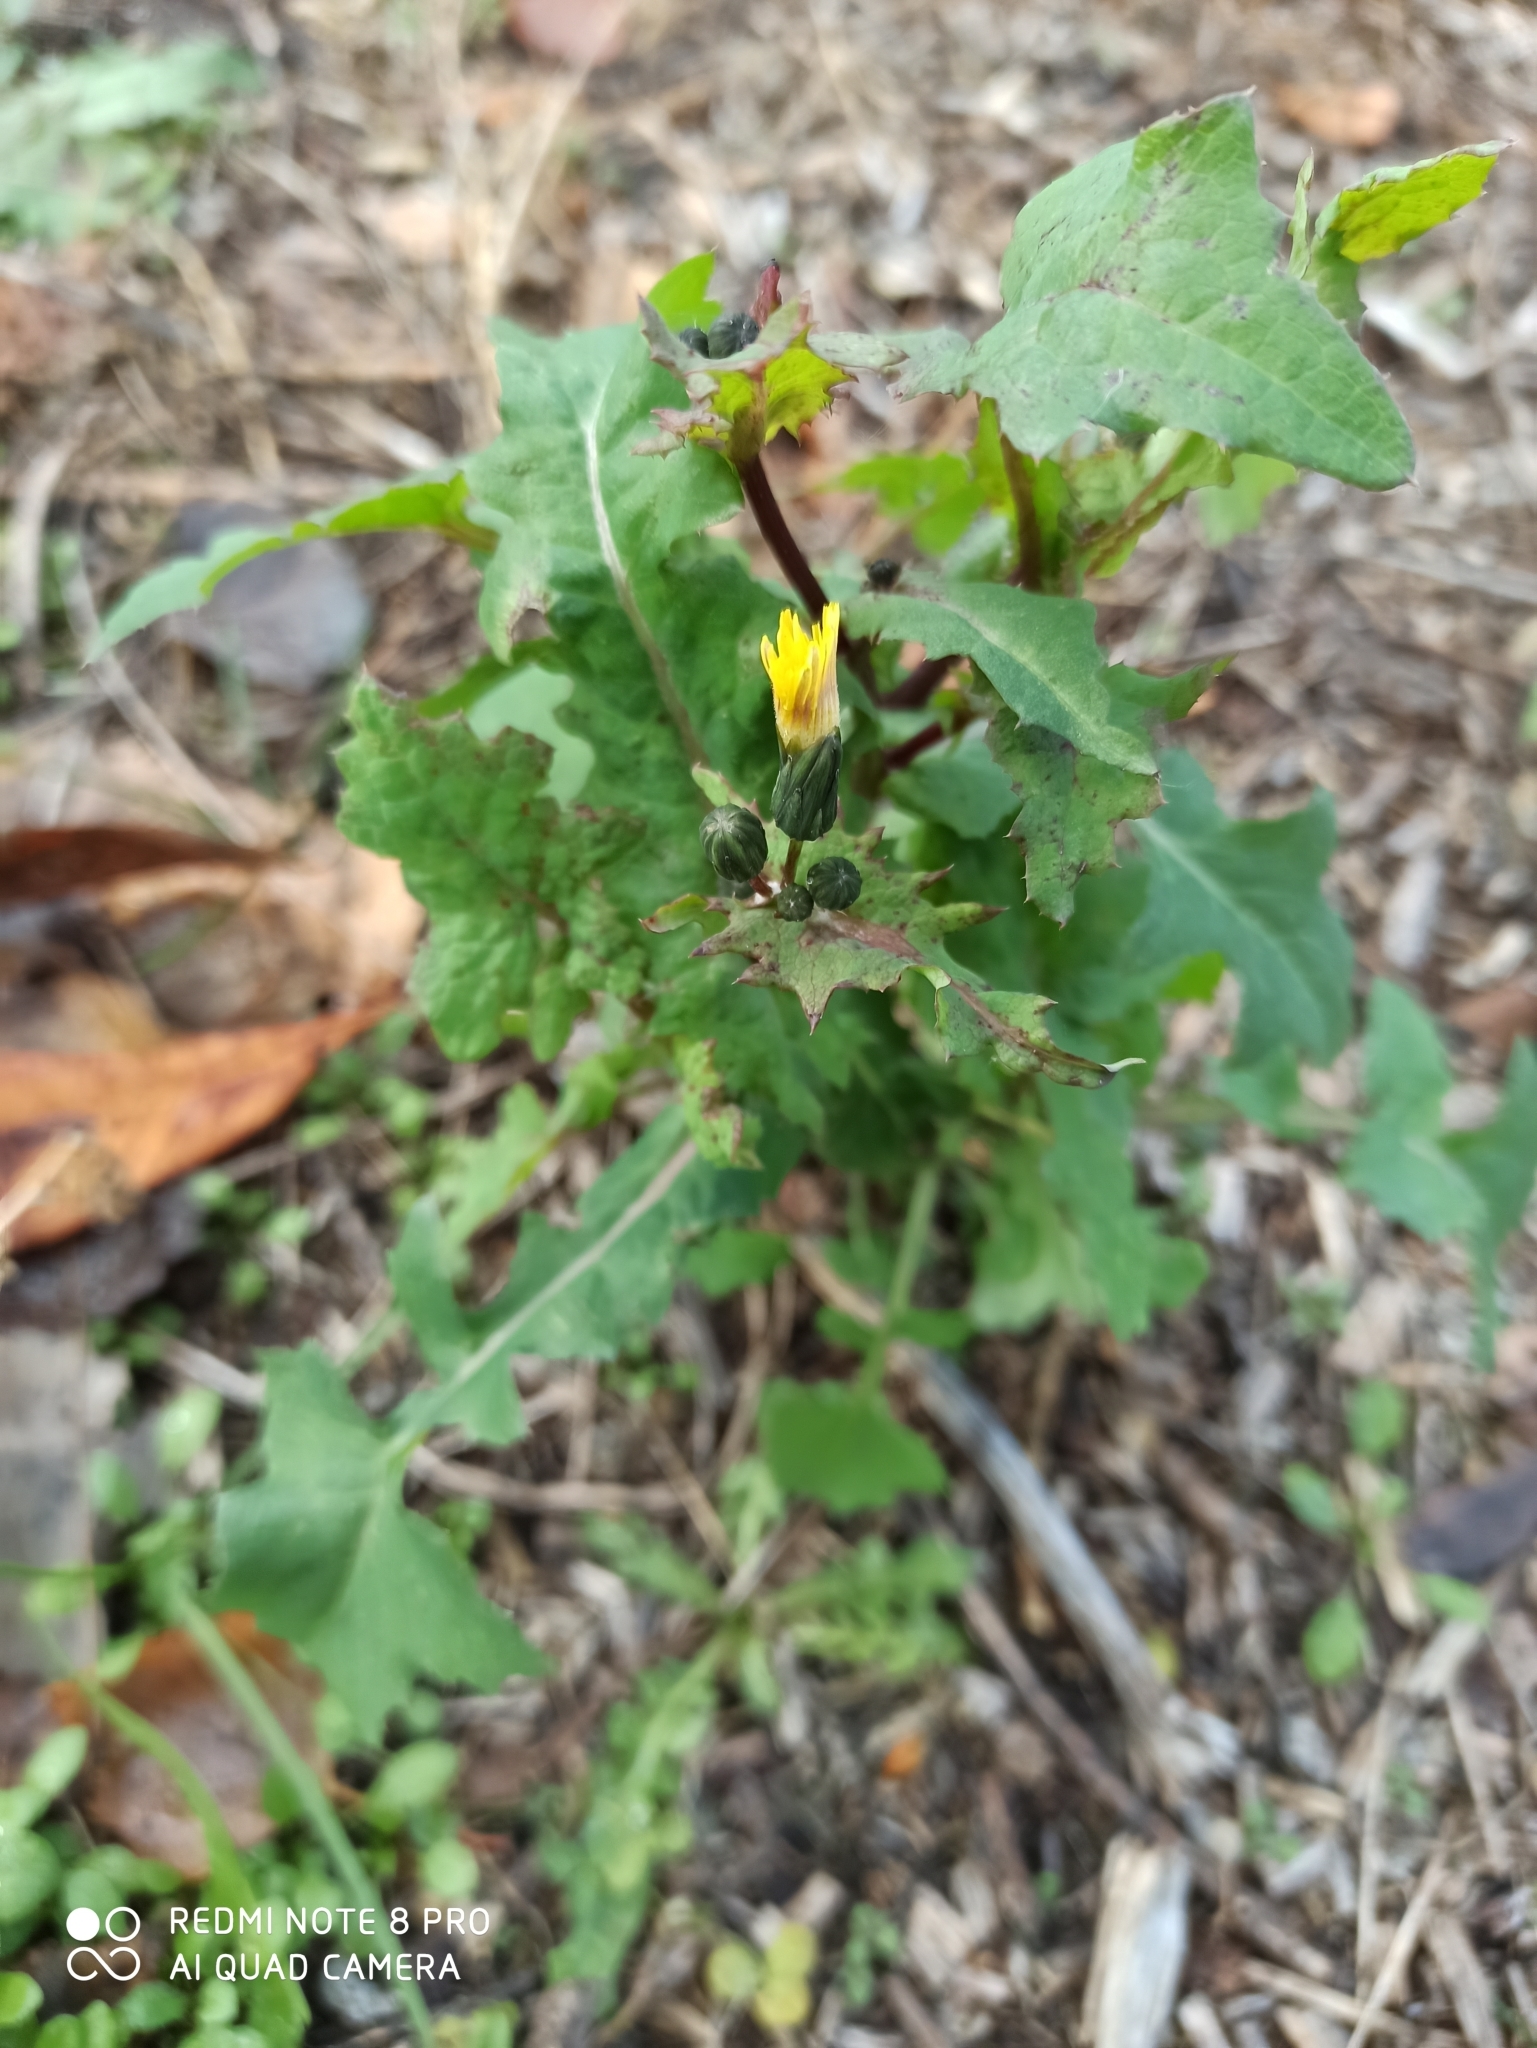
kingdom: Plantae
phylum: Tracheophyta
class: Magnoliopsida
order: Asterales
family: Asteraceae
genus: Sonchus
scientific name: Sonchus arvensis
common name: Perennial sow-thistle
